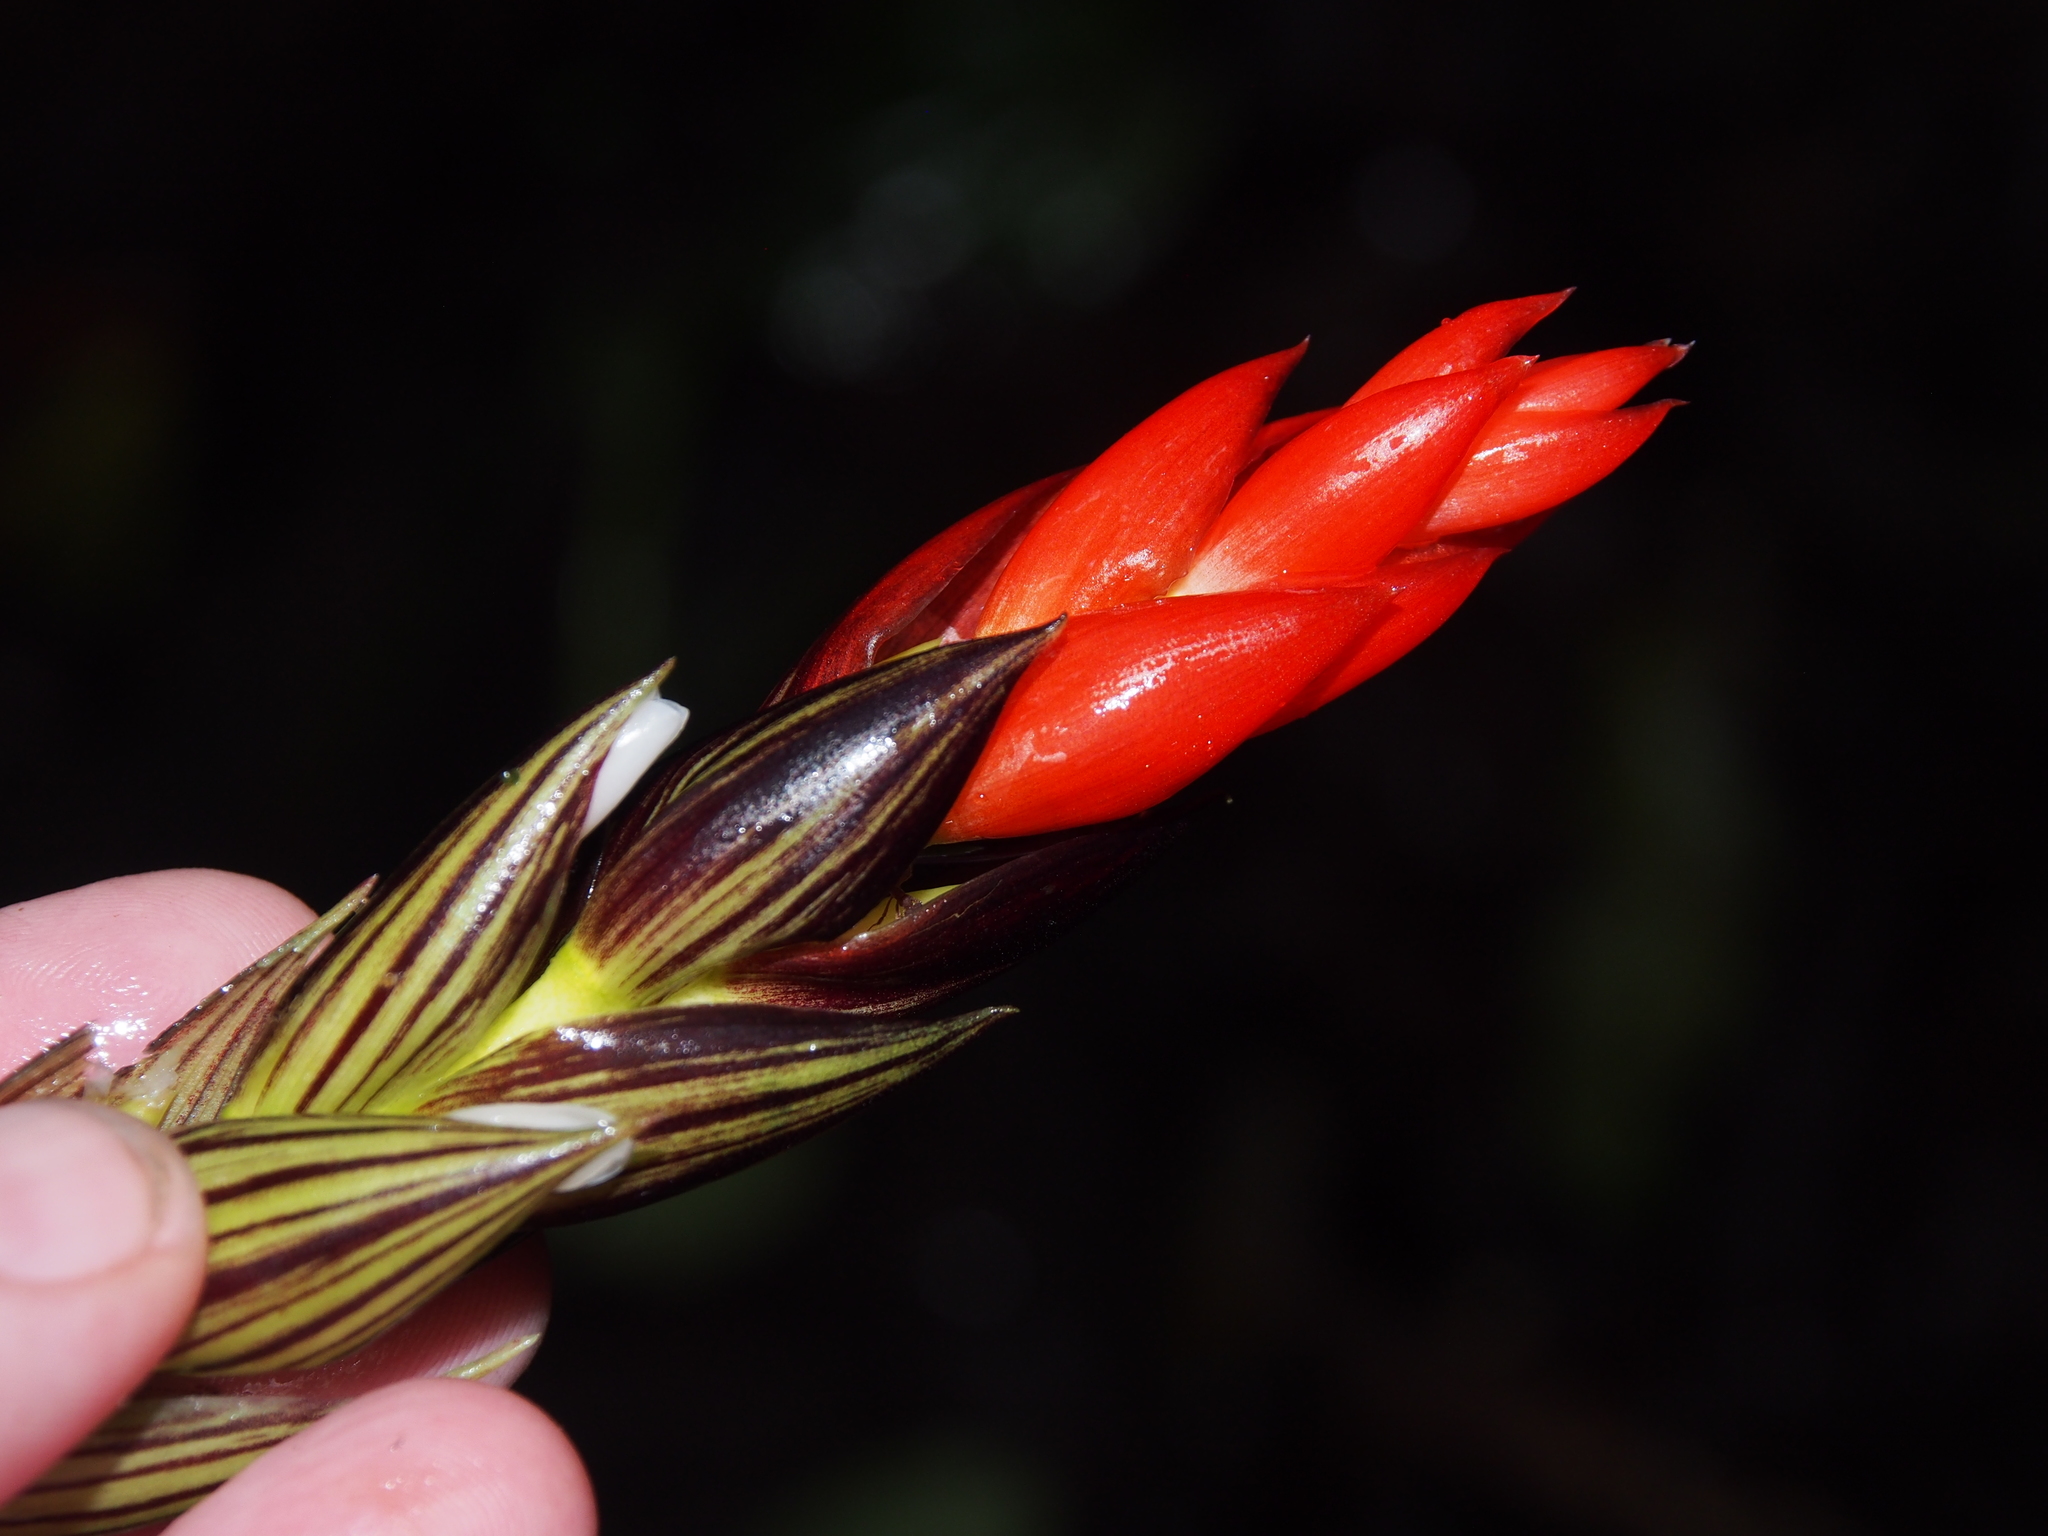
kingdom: Plantae
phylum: Tracheophyta
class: Liliopsida
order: Poales
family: Bromeliaceae
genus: Guzmania
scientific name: Guzmania monostachia
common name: West indian tufted airplant
